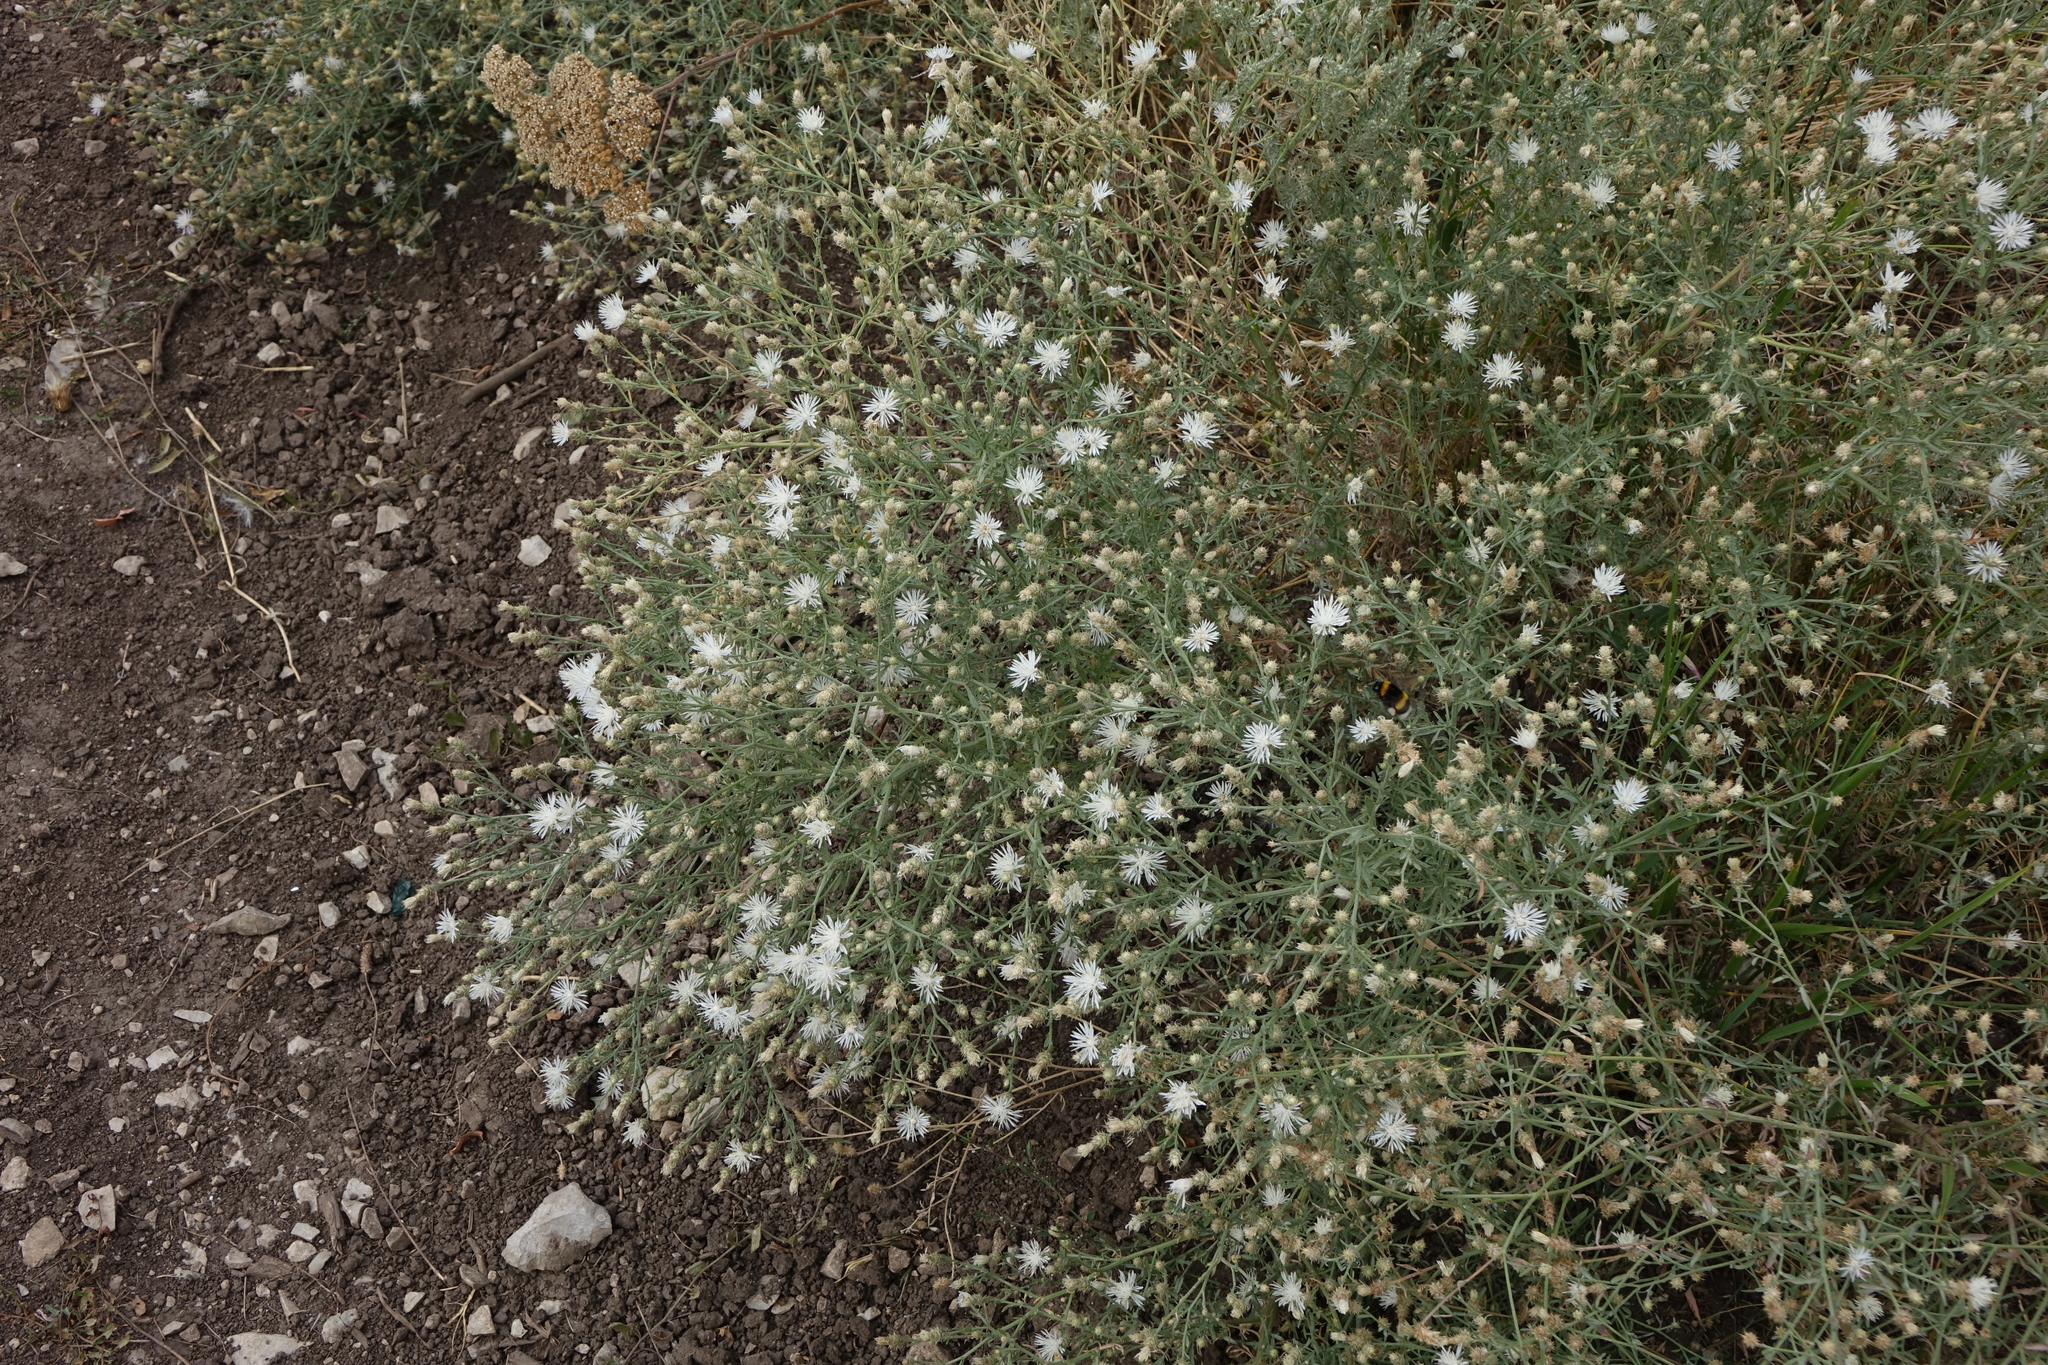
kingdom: Plantae
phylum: Tracheophyta
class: Magnoliopsida
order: Asterales
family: Asteraceae
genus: Centaurea
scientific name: Centaurea diffusa
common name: Diffuse knapweed
